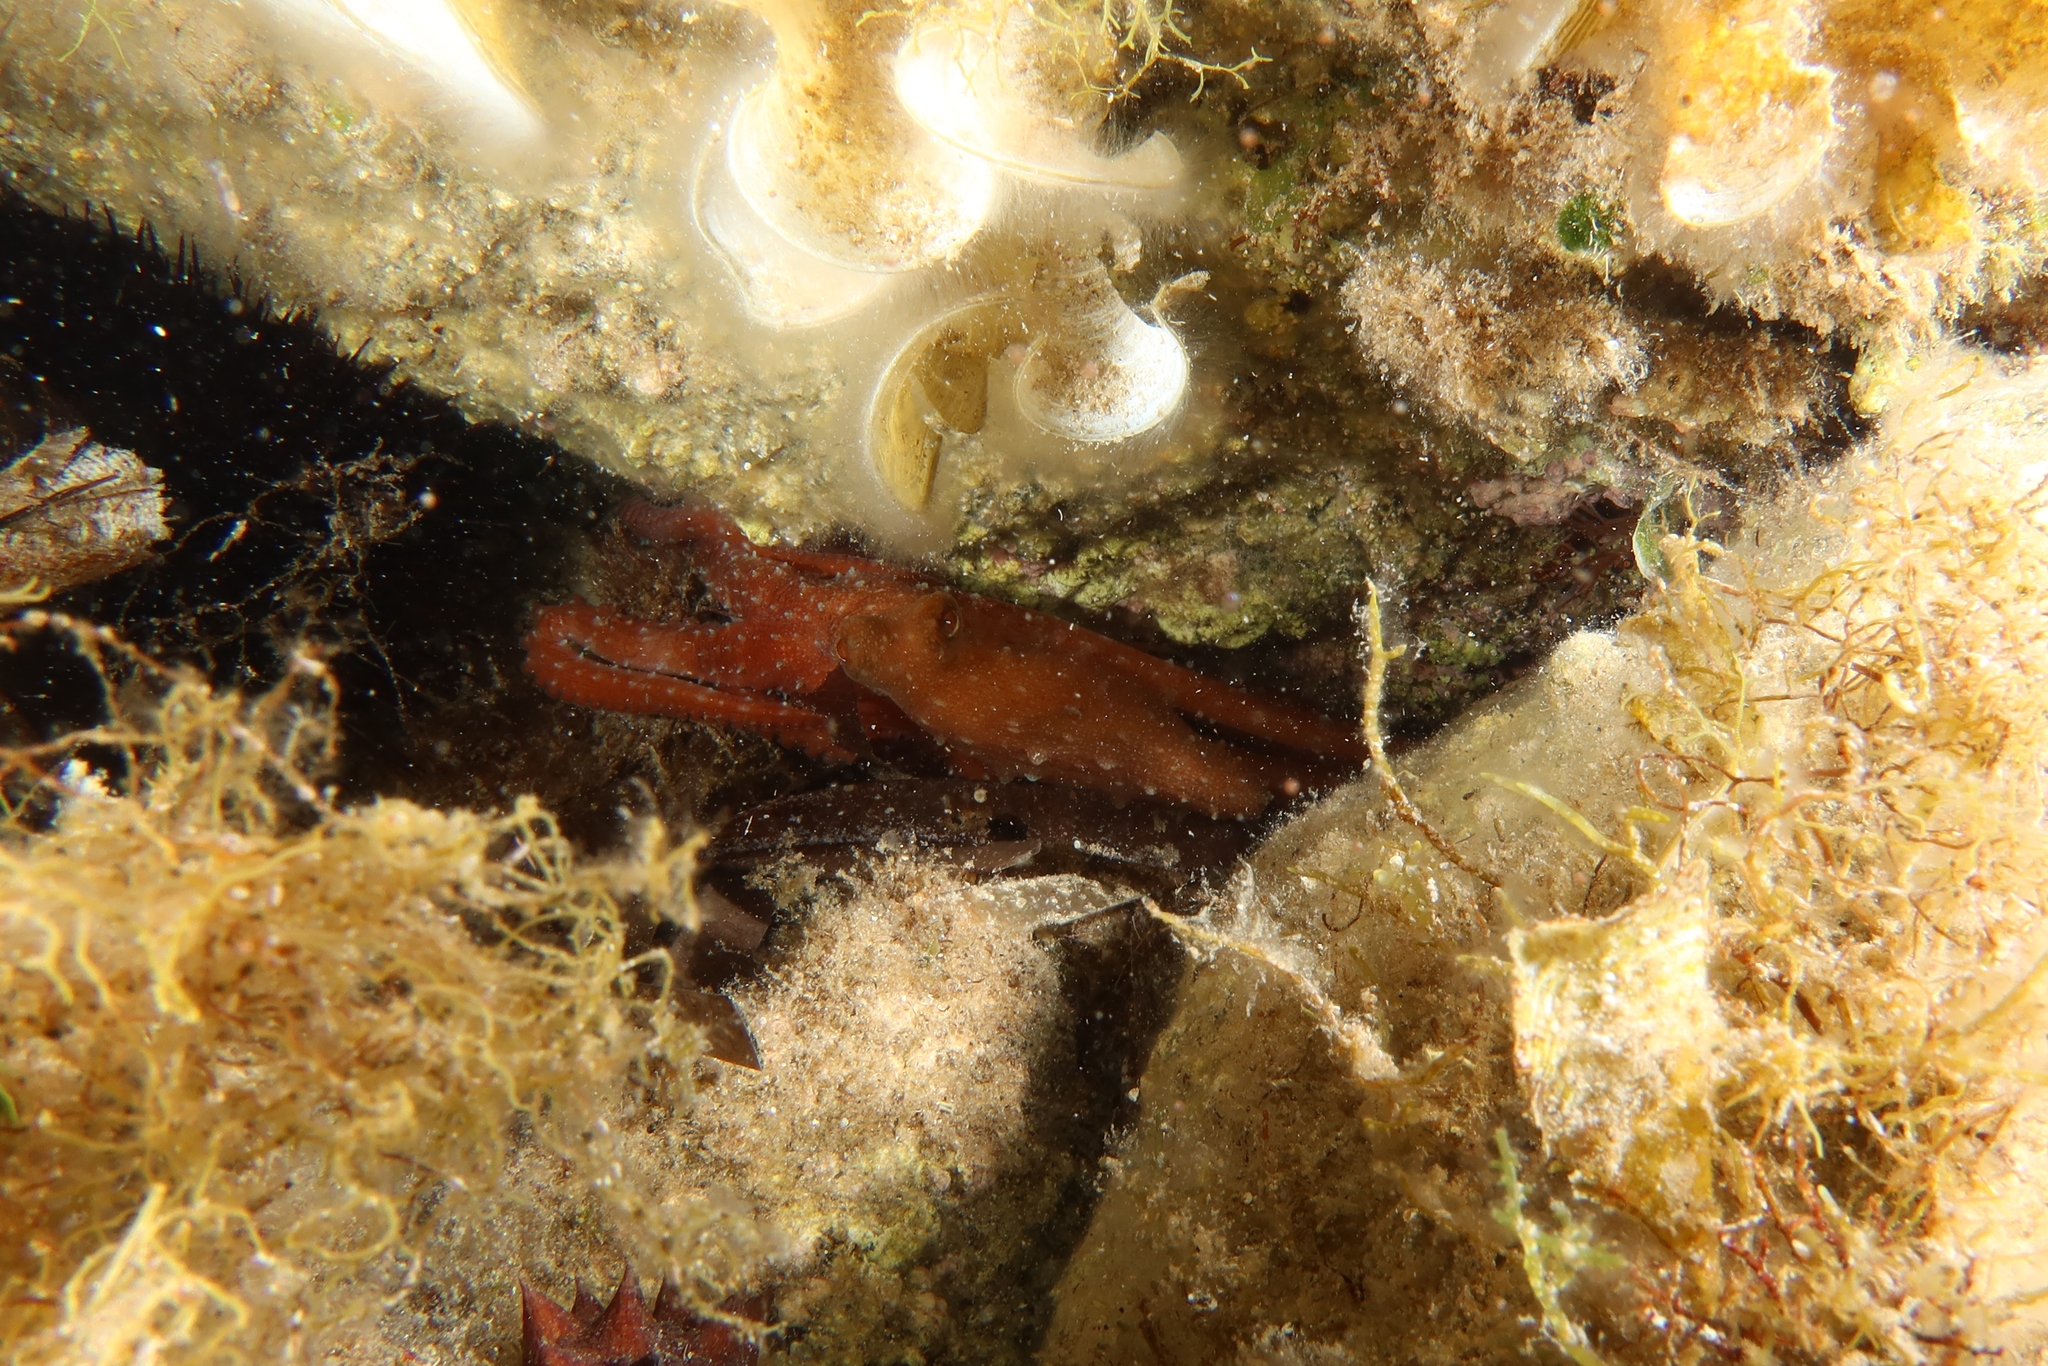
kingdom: Animalia
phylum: Mollusca
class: Cephalopoda
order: Octopoda
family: Octopodidae
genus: Callistoctopus
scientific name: Callistoctopus macropus
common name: Atlantic white-spotted octopus
